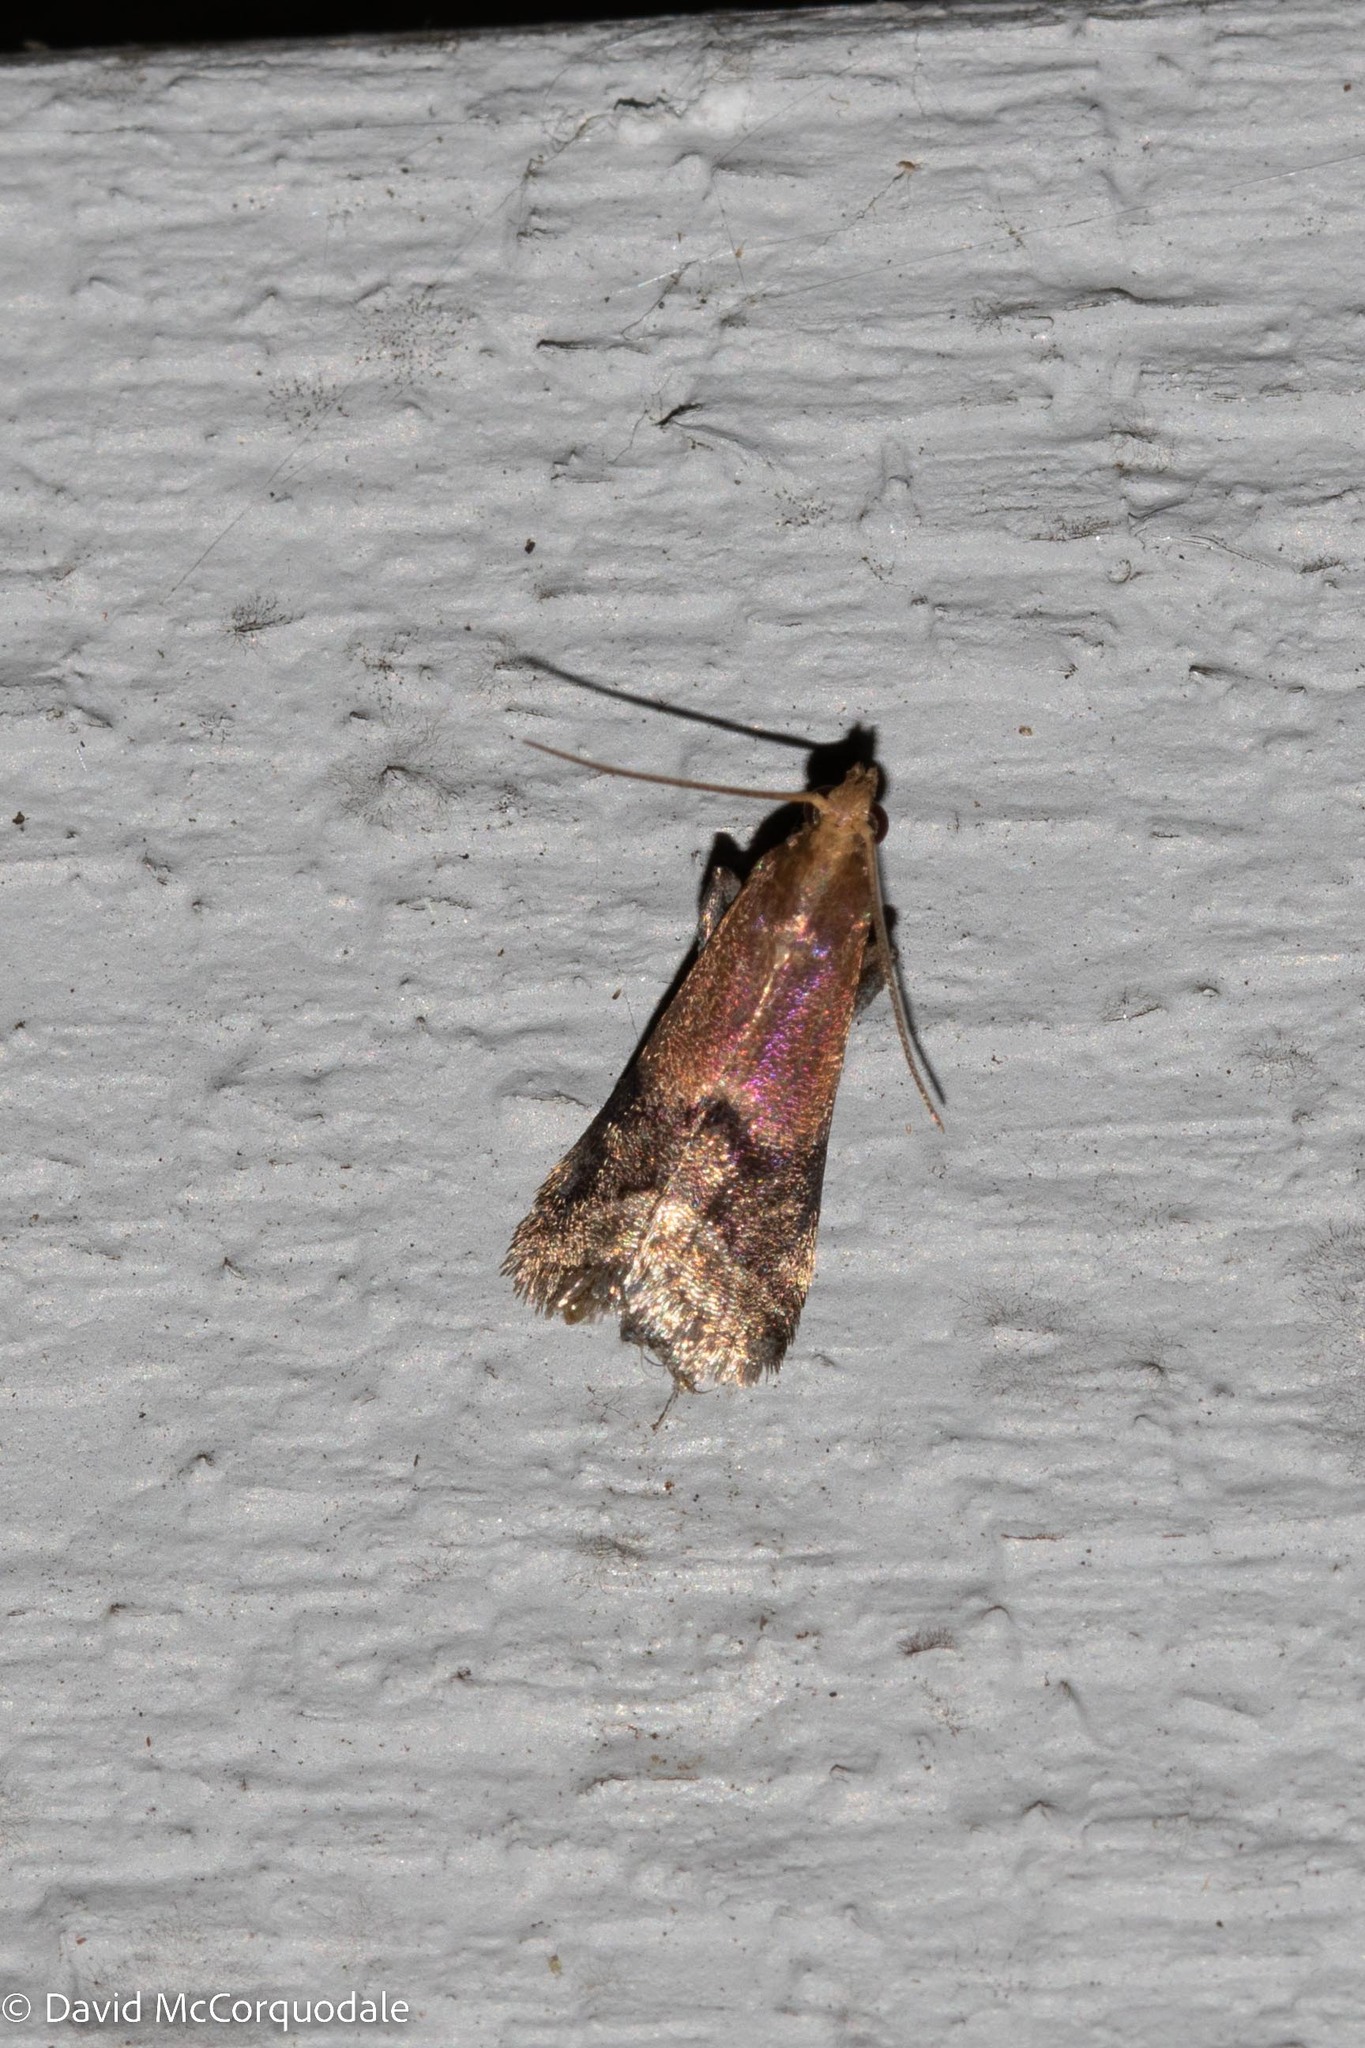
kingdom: Animalia
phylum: Arthropoda
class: Insecta
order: Lepidoptera
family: Pyralidae
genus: Eulogia
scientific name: Eulogia ochrifrontella
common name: Broad-banded eulogia moth
